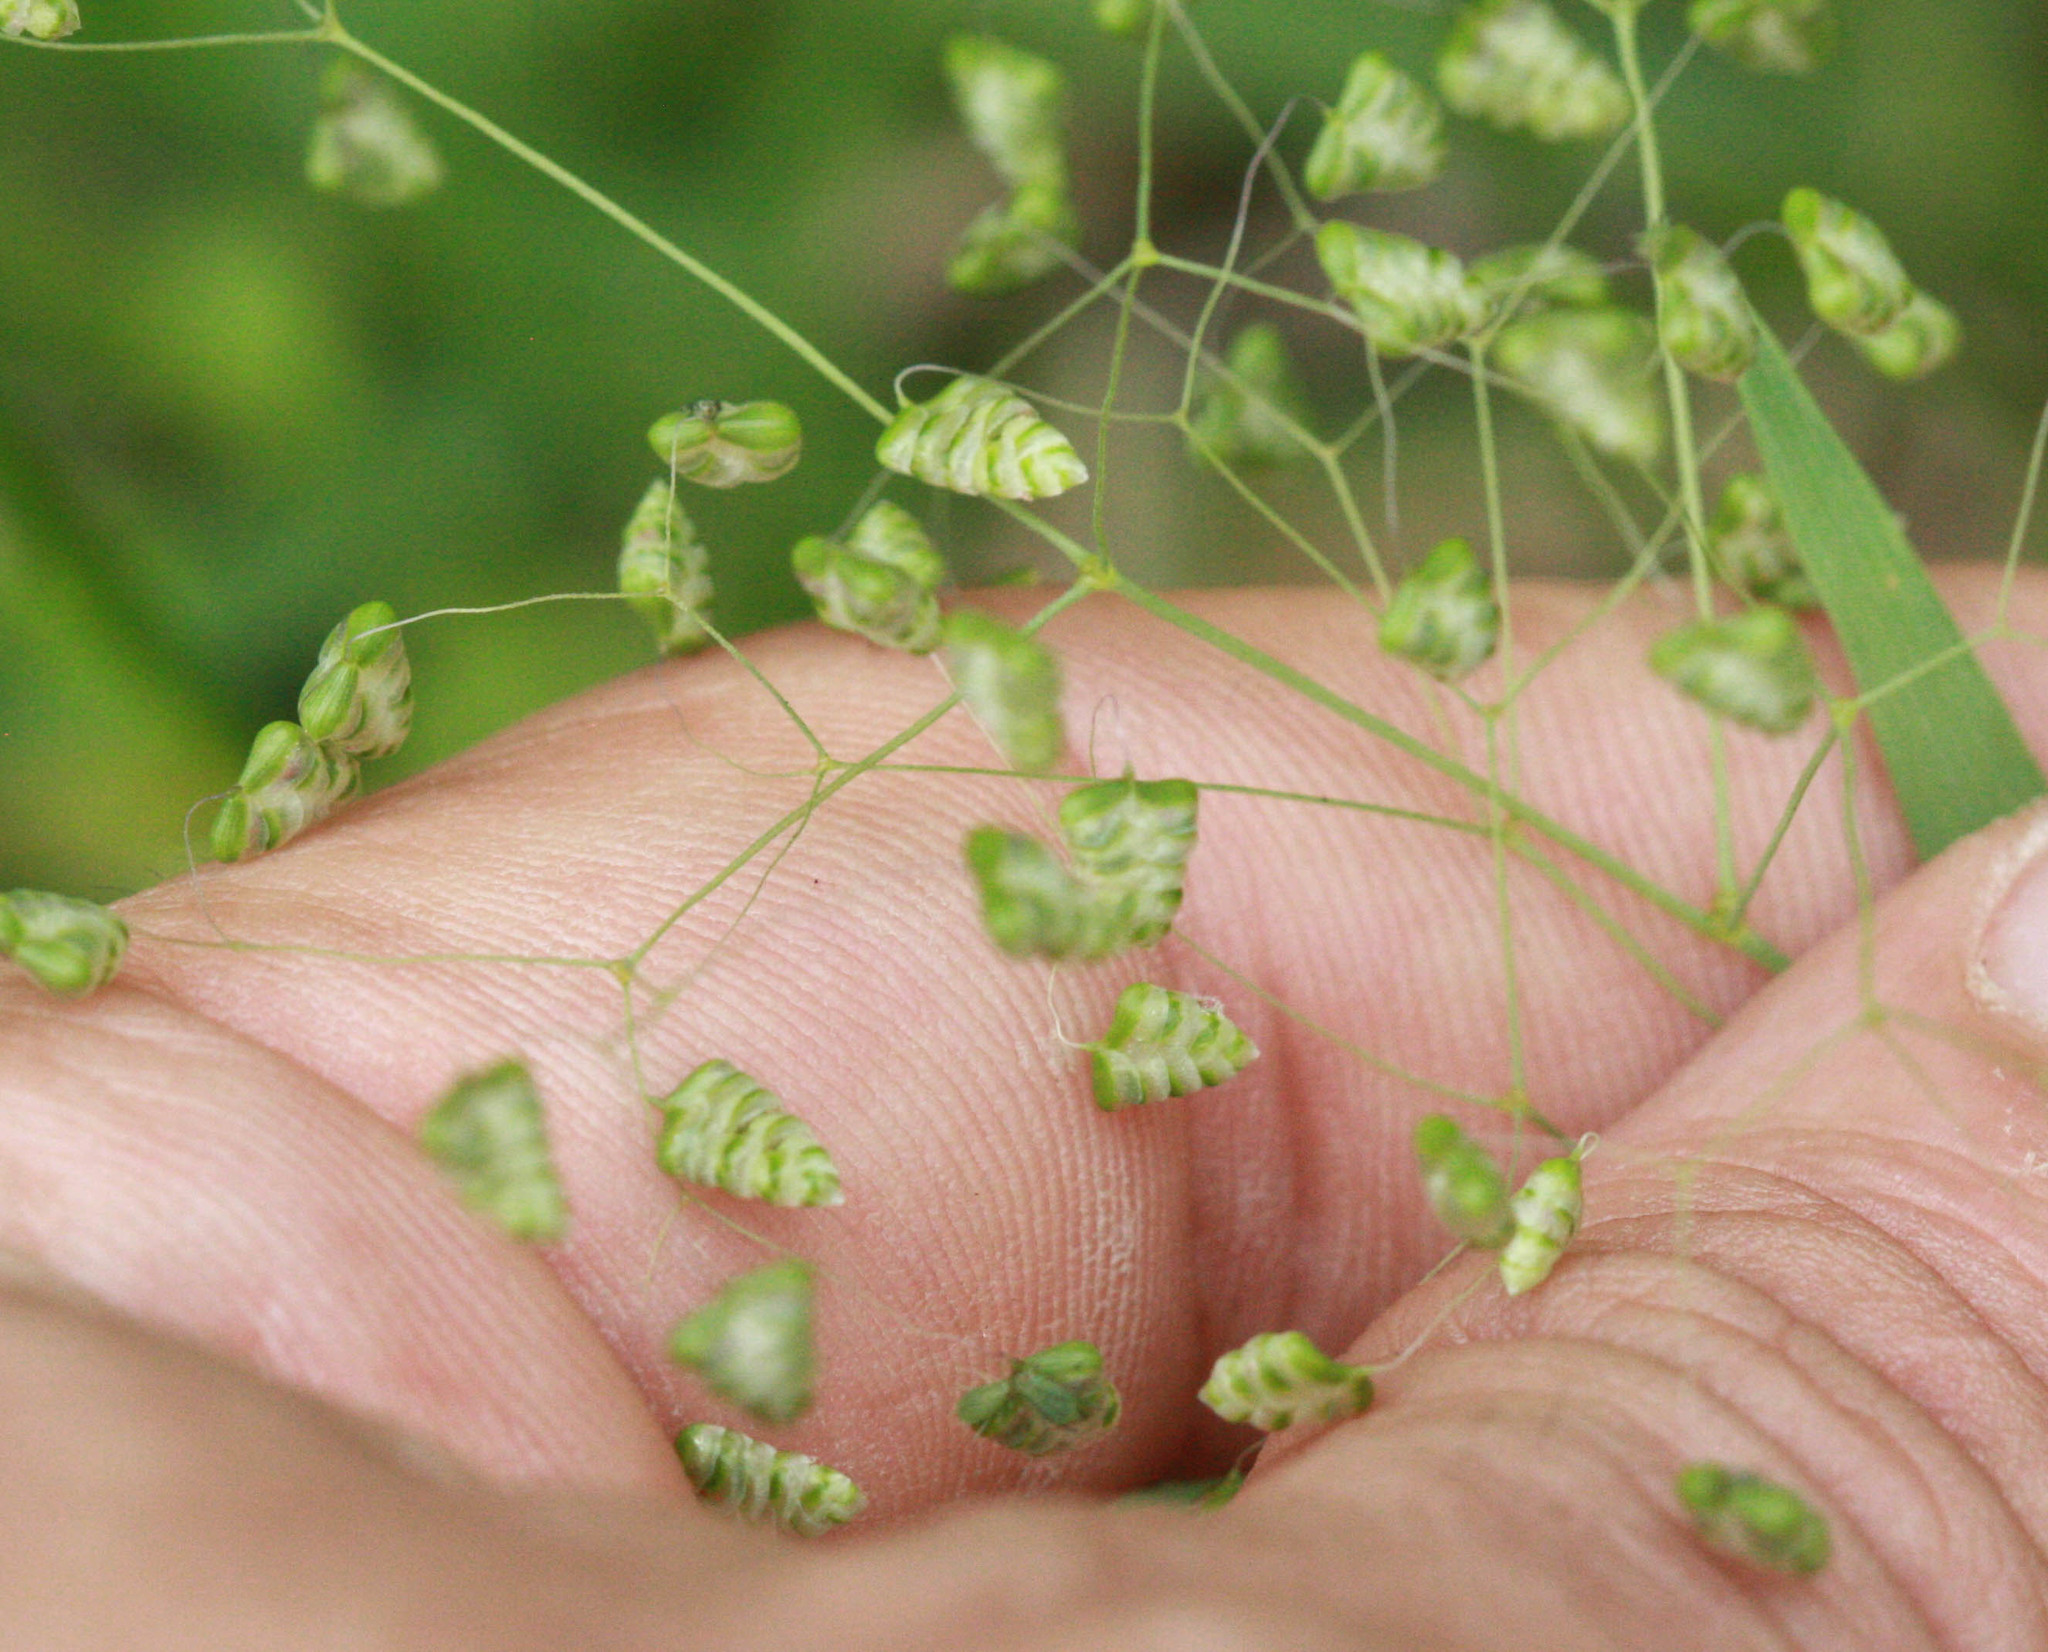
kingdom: Plantae
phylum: Tracheophyta
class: Liliopsida
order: Poales
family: Poaceae
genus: Briza
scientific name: Briza minor
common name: Lesser quaking-grass
